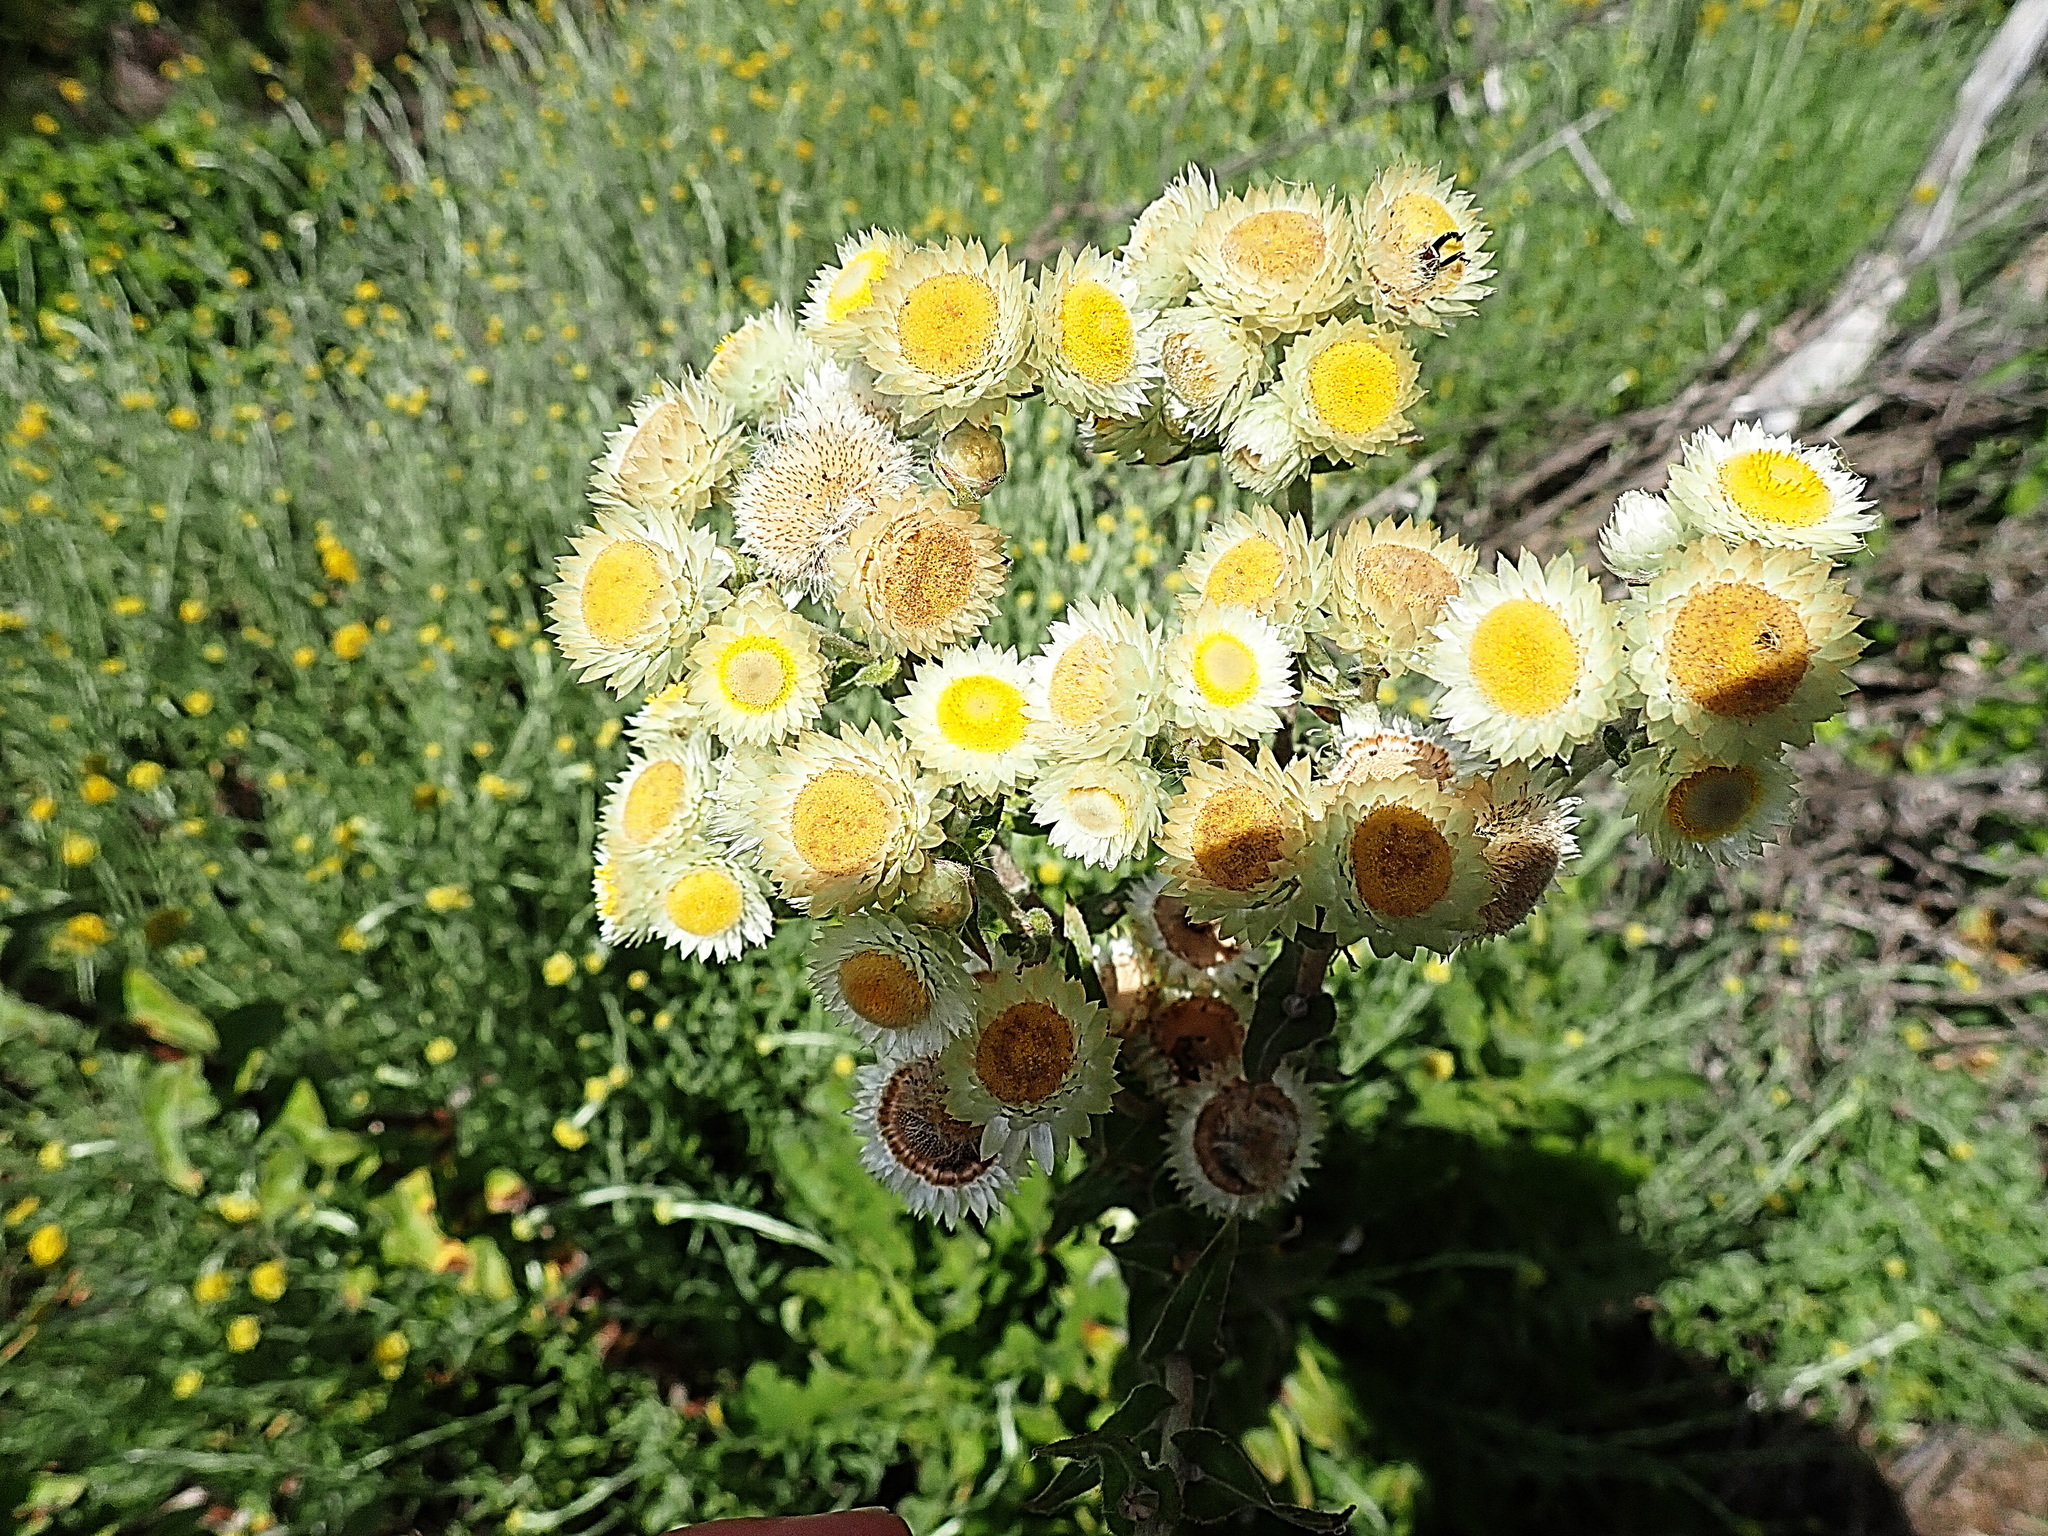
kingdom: Plantae
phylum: Tracheophyta
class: Magnoliopsida
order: Asterales
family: Asteraceae
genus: Helichrysum
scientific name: Helichrysum foetidum
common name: Stinking everlasting
